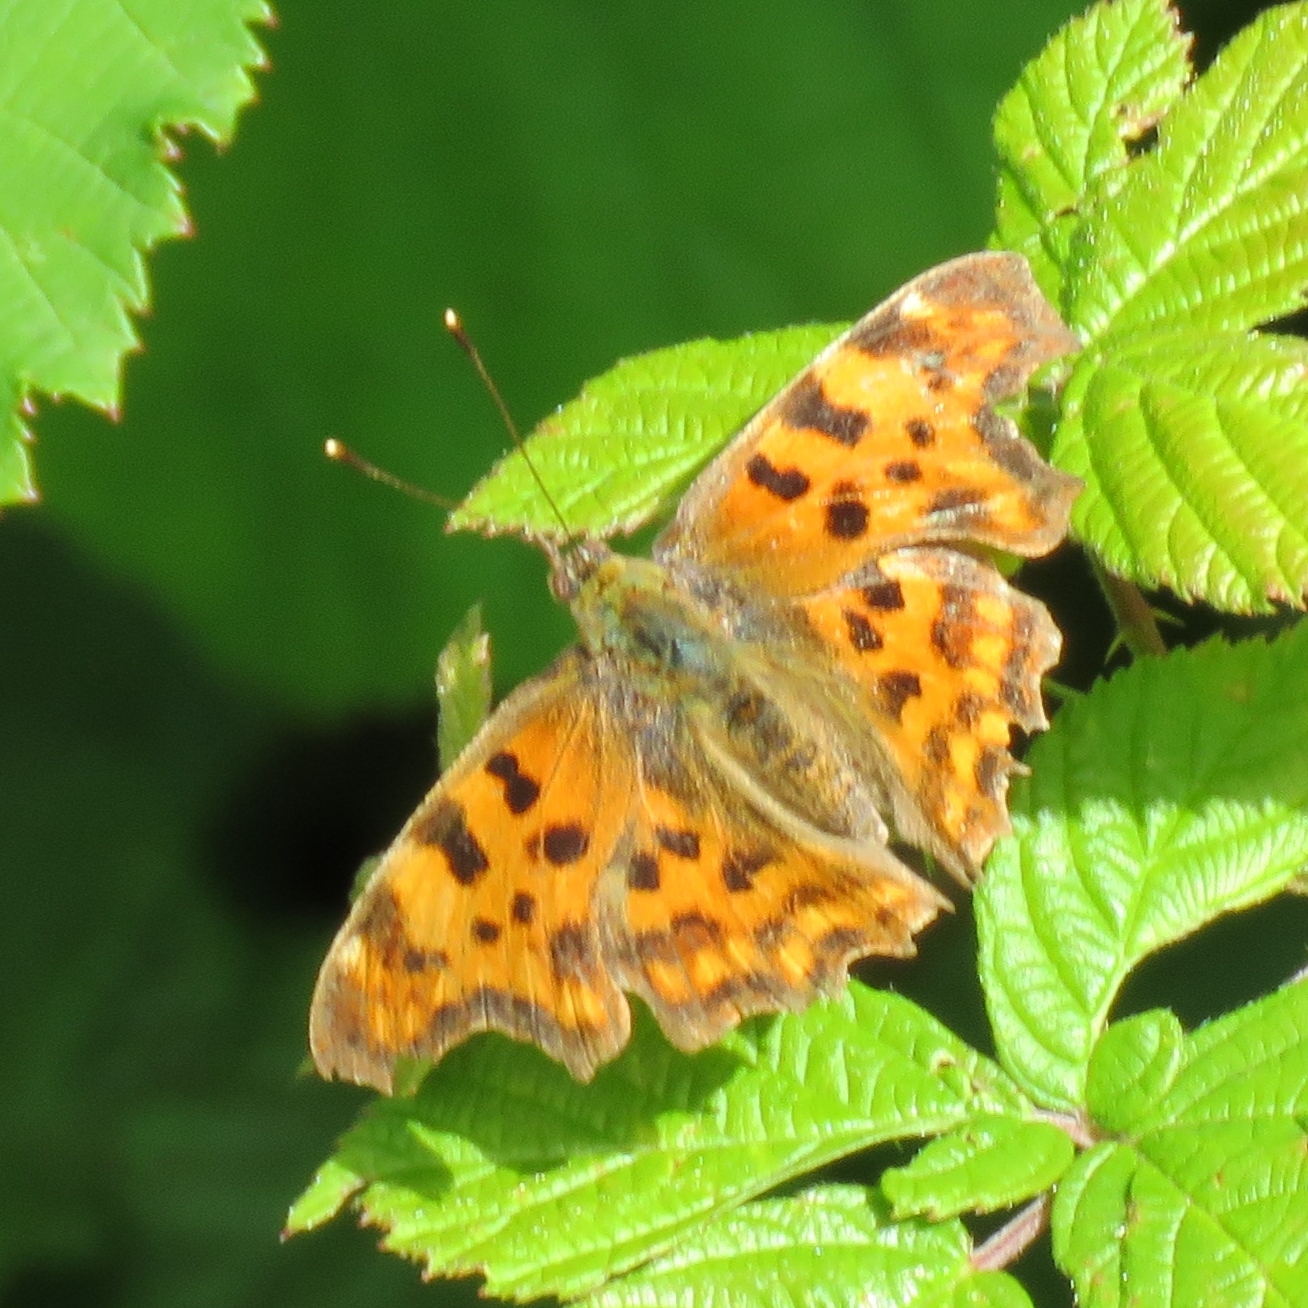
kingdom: Animalia
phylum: Arthropoda
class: Insecta
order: Lepidoptera
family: Nymphalidae
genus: Polygonia
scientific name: Polygonia c-album
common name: Comma
